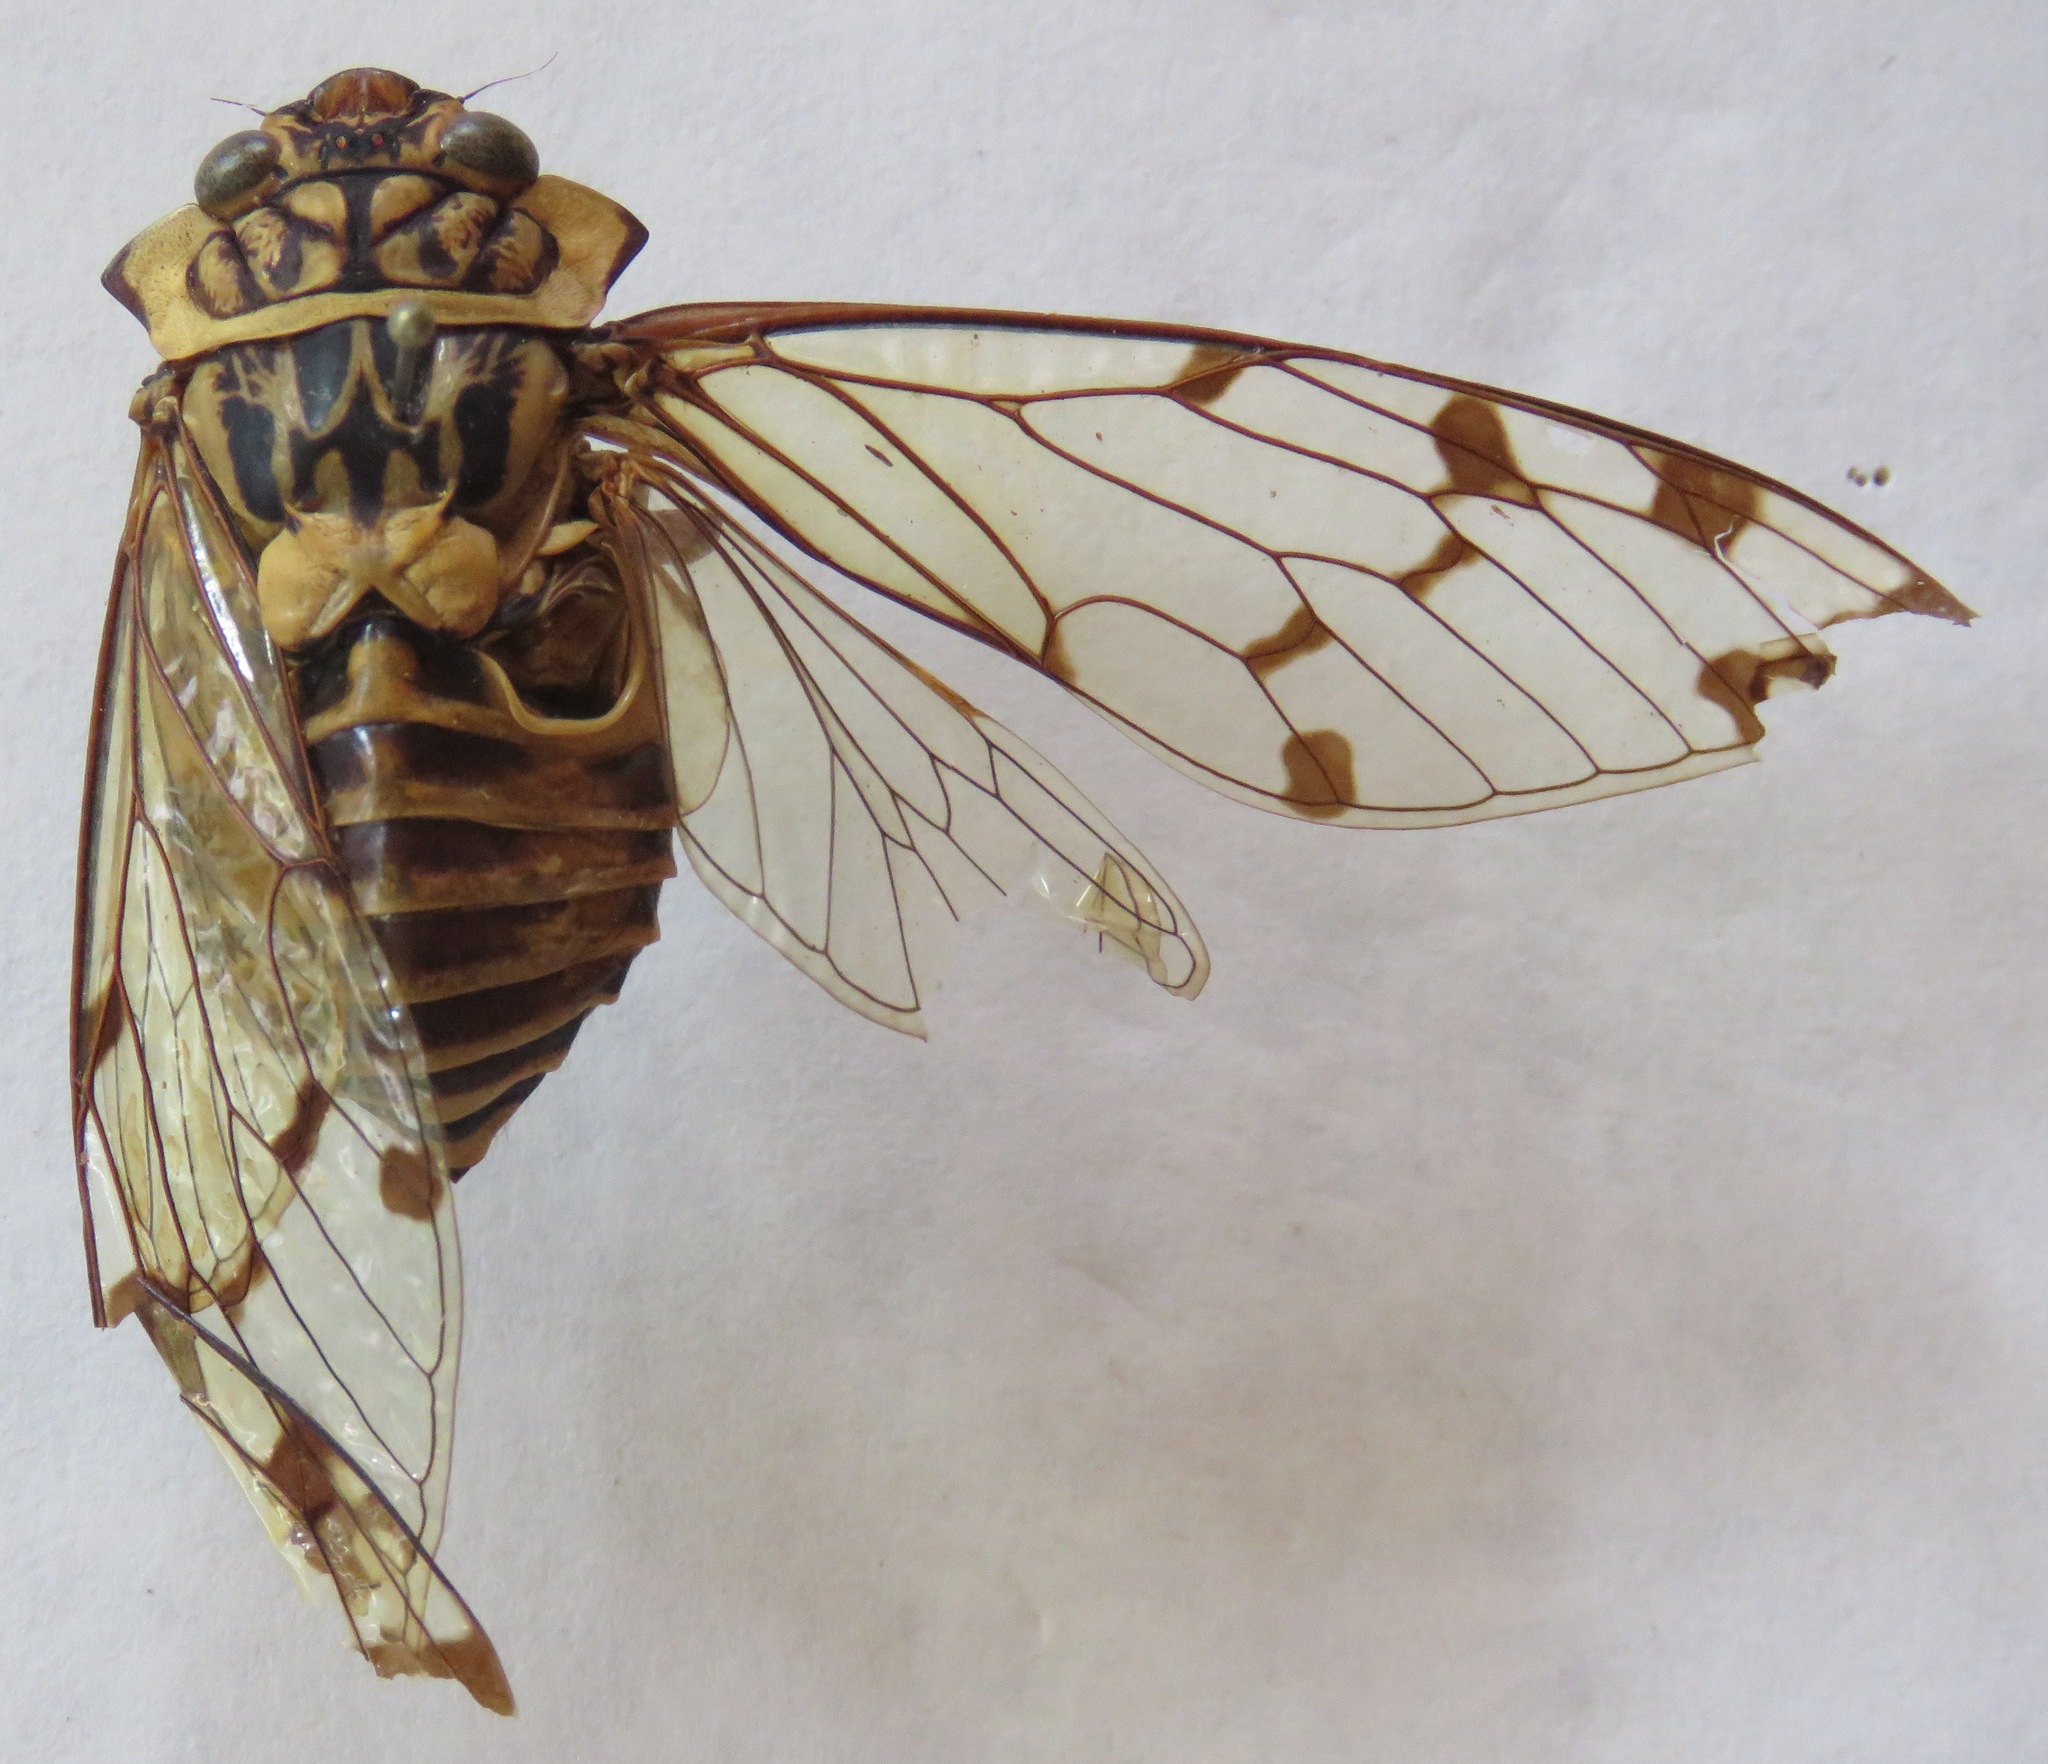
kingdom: Animalia
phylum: Arthropoda
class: Insecta
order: Hemiptera
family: Cicadidae
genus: Zammara
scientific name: Zammara smaragdina
